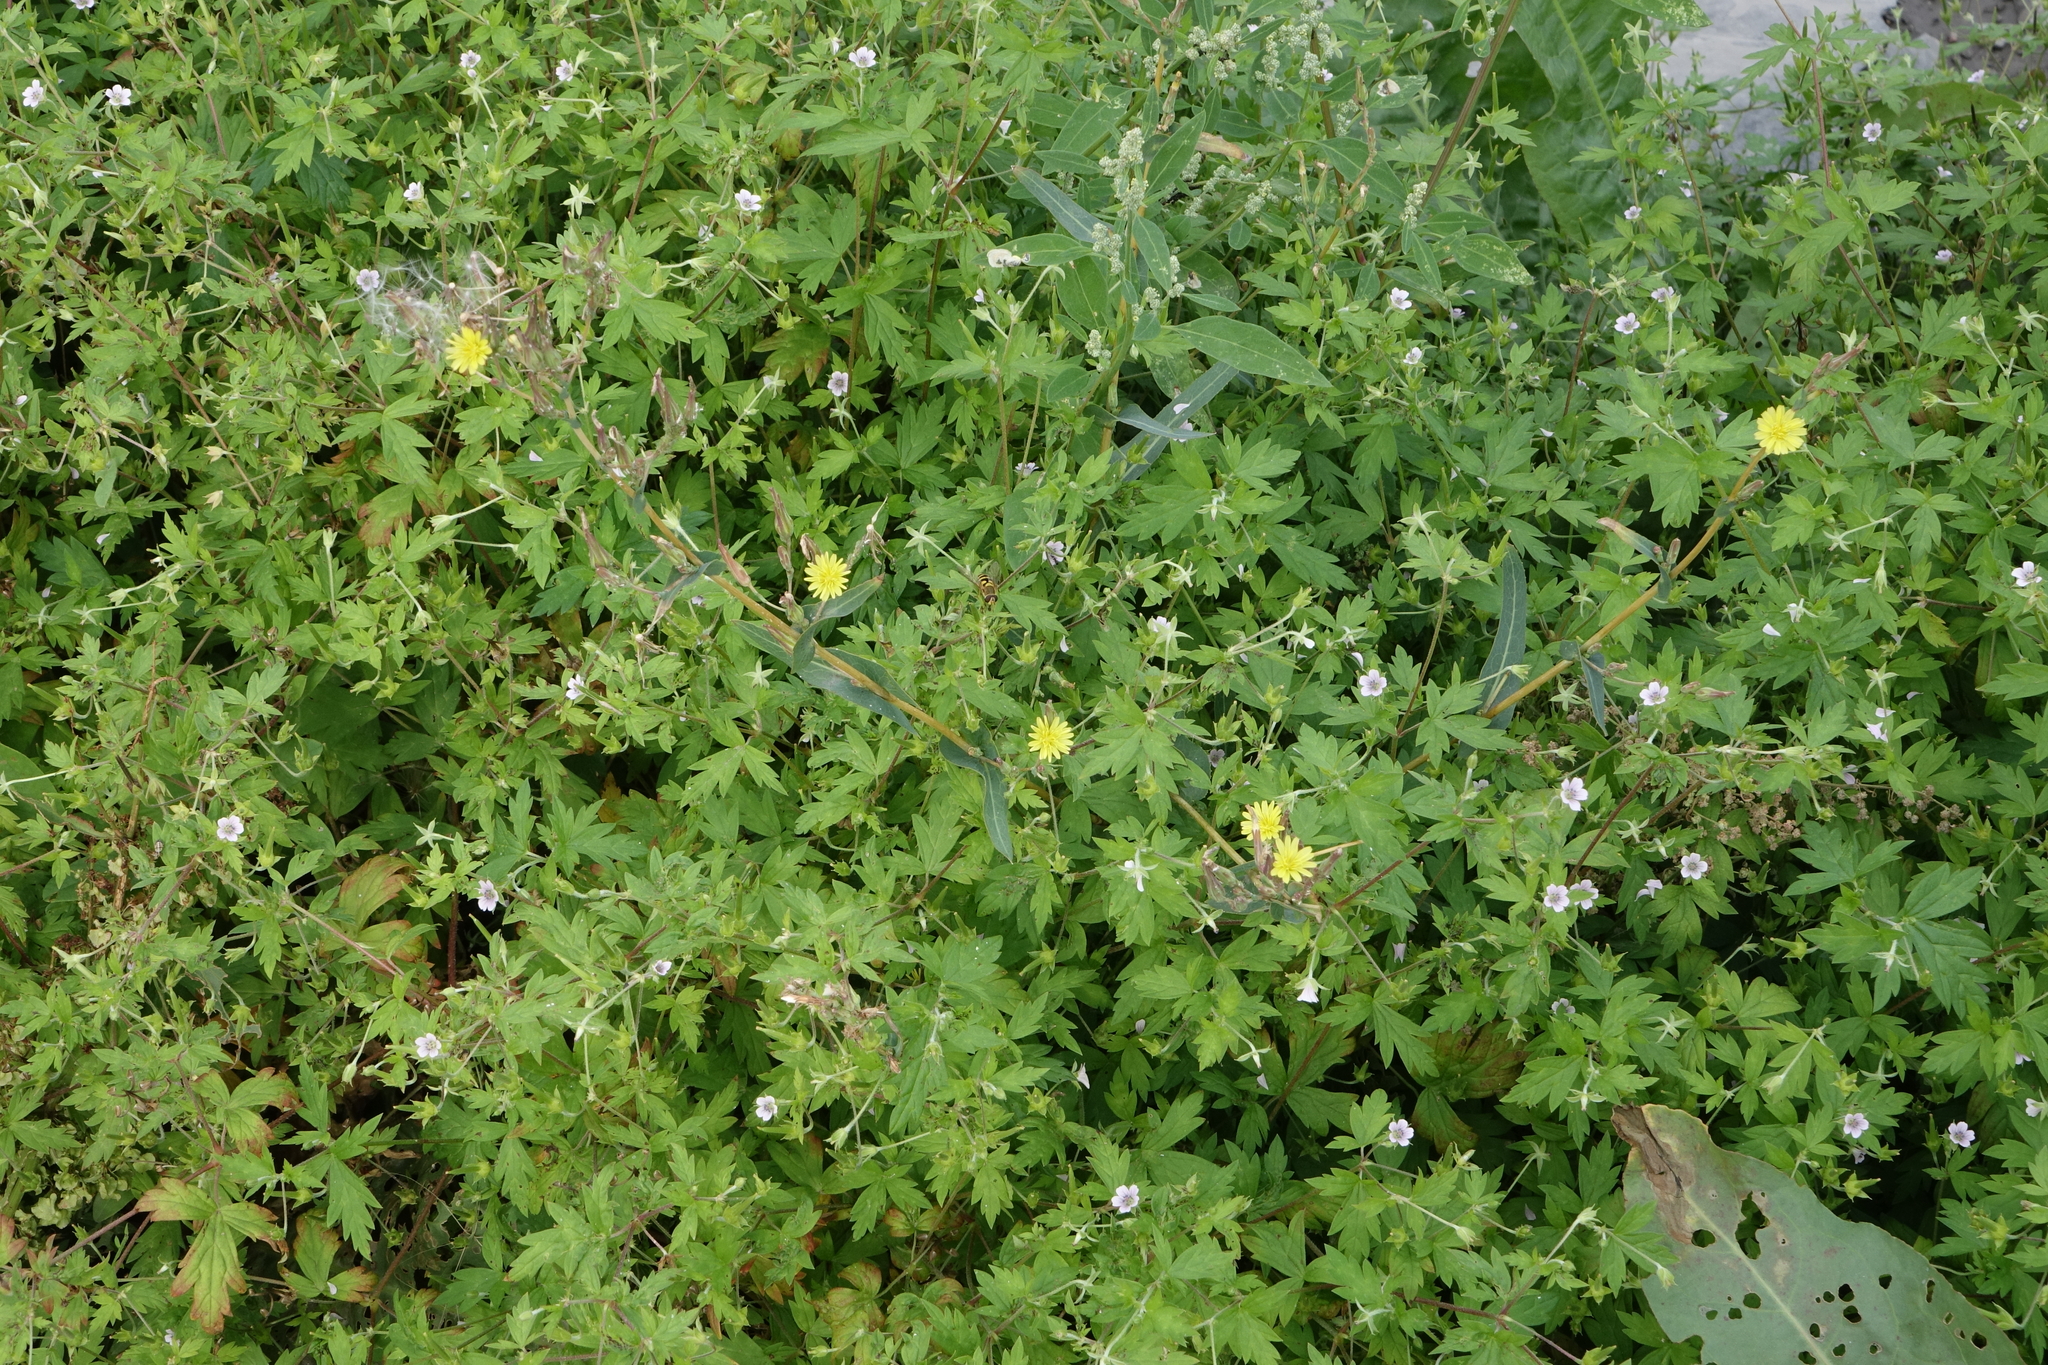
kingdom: Plantae
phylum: Tracheophyta
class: Magnoliopsida
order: Asterales
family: Asteraceae
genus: Lactuca
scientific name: Lactuca serriola
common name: Prickly lettuce
